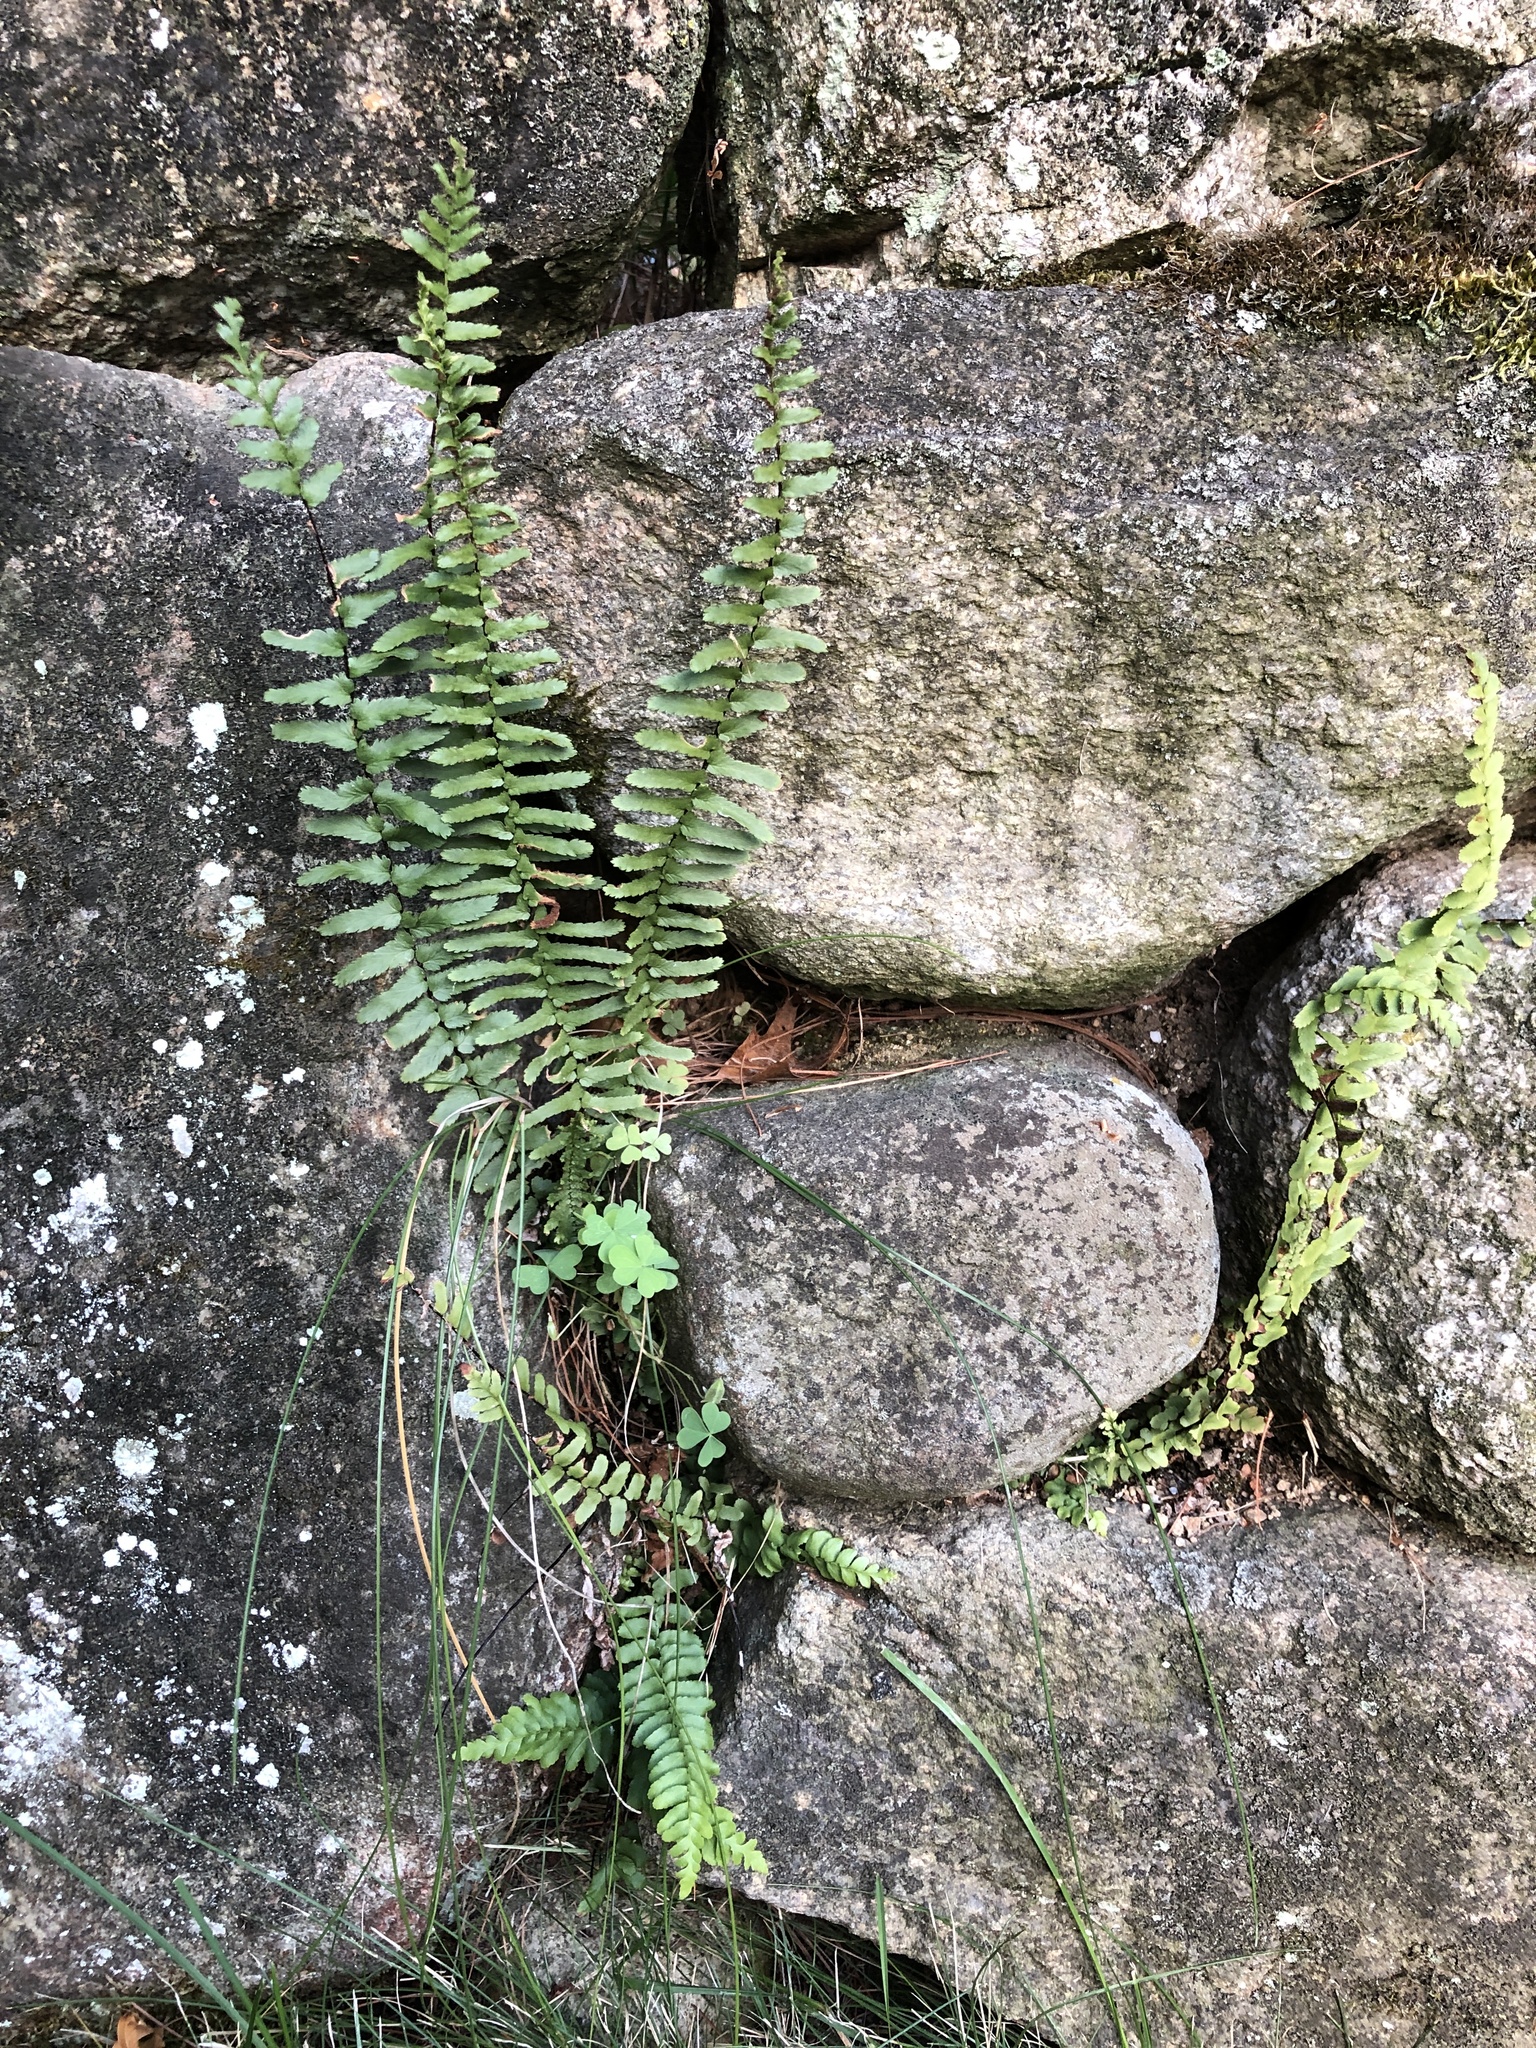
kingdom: Plantae
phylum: Tracheophyta
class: Polypodiopsida
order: Polypodiales
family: Aspleniaceae
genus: Asplenium
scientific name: Asplenium platyneuron
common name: Ebony spleenwort
